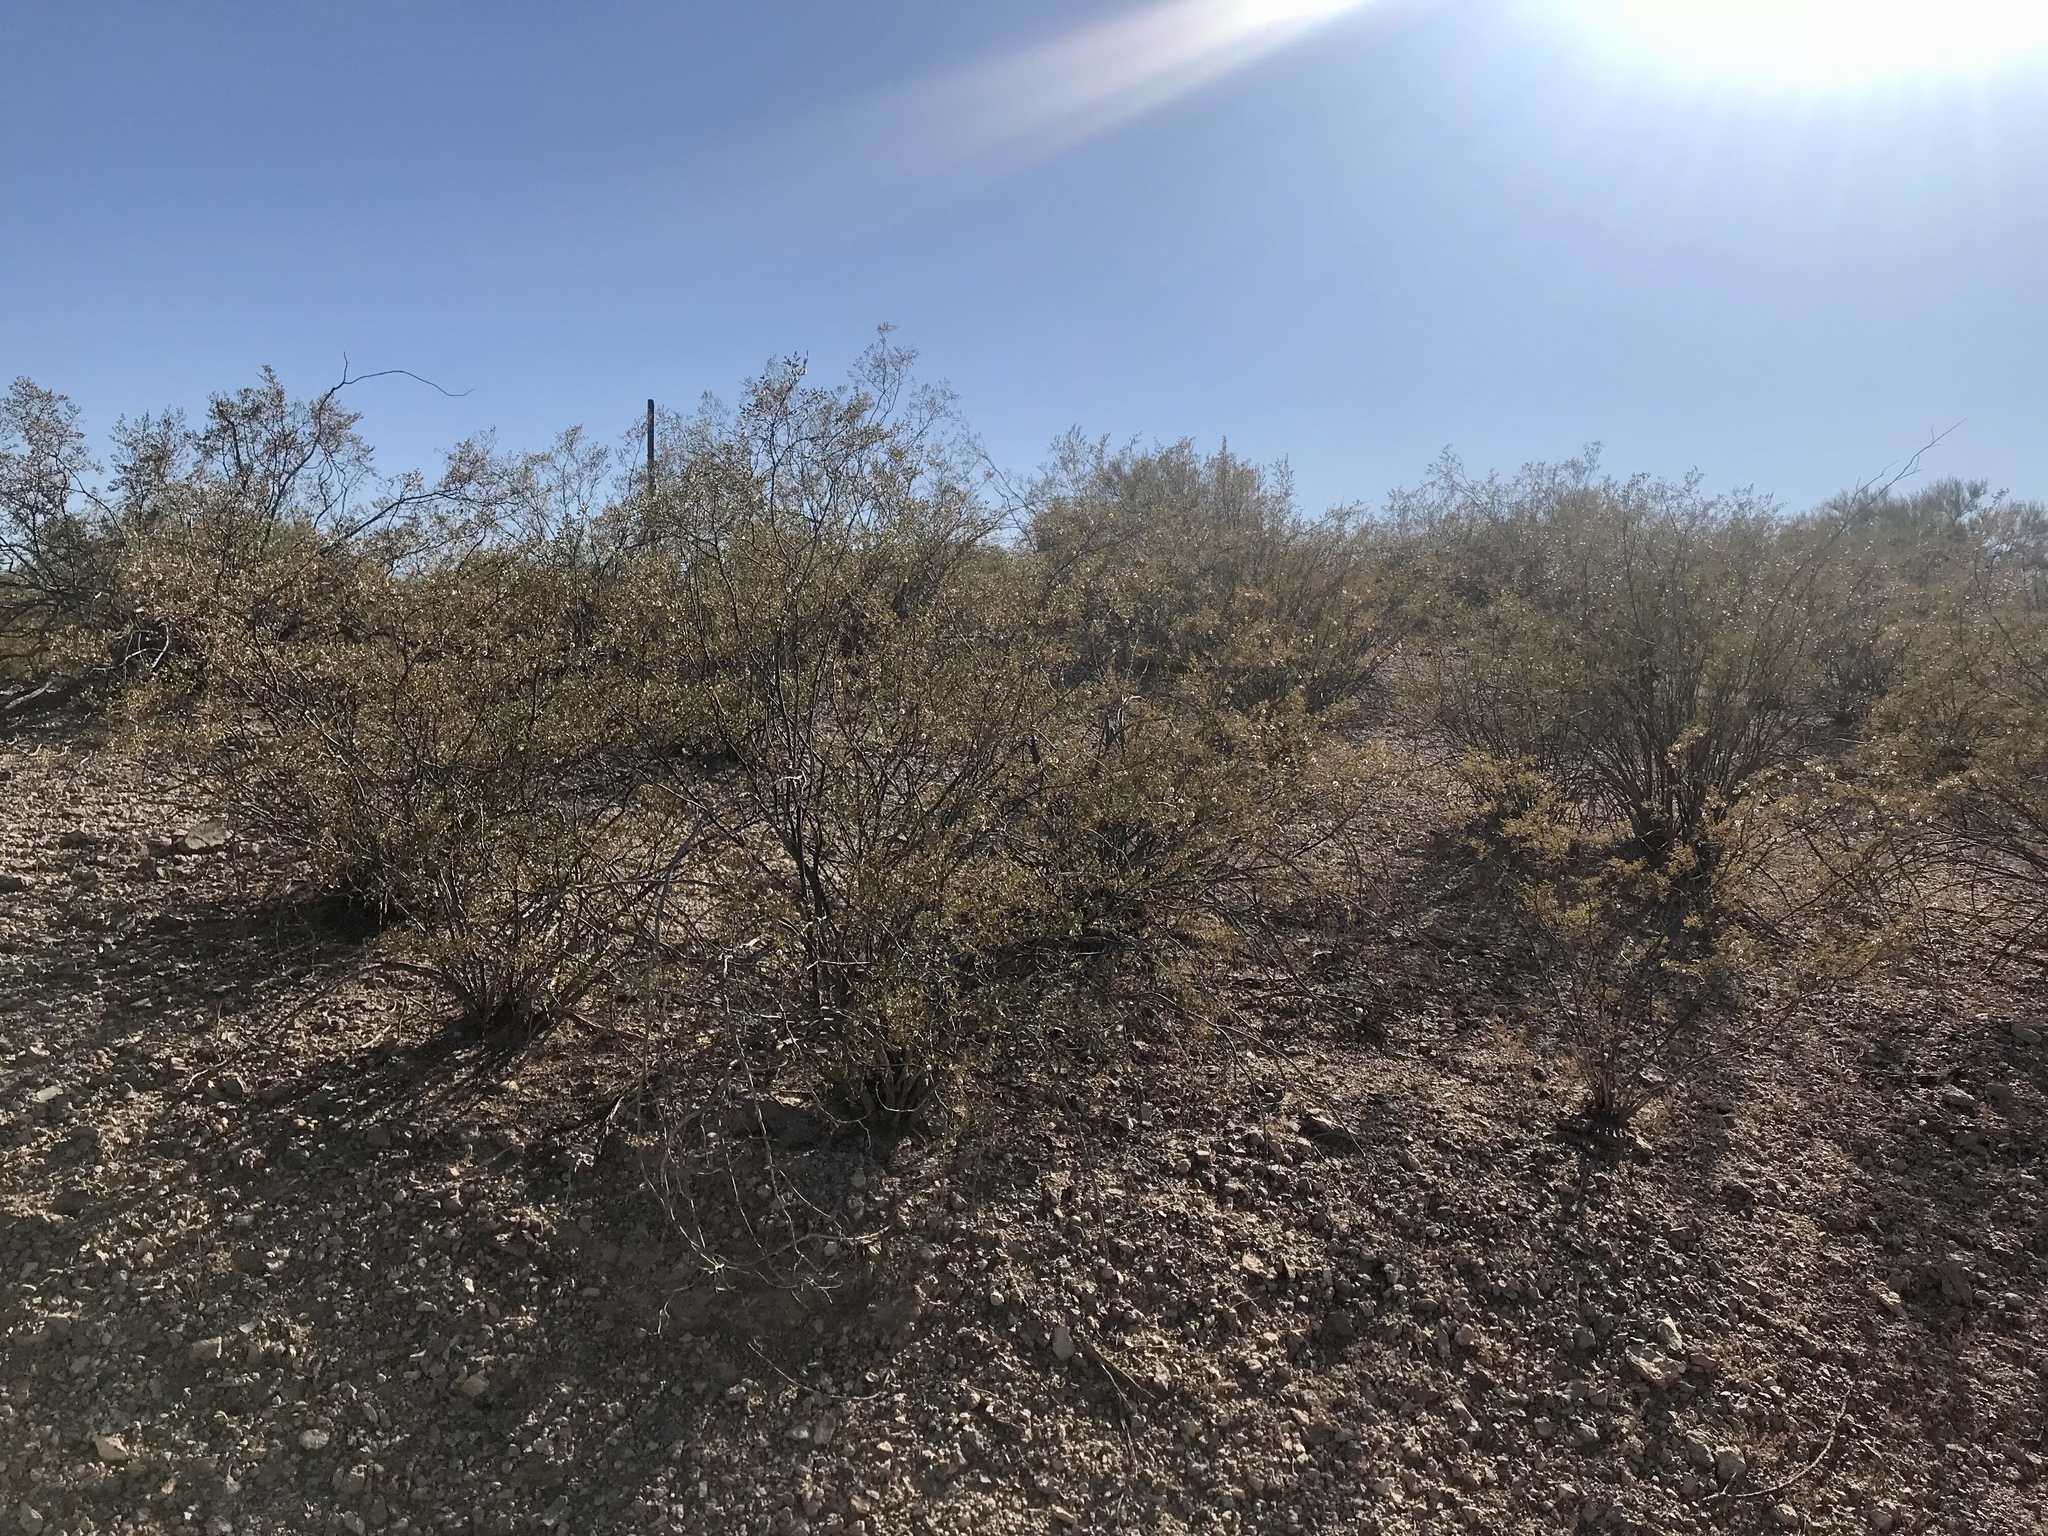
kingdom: Plantae
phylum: Tracheophyta
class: Magnoliopsida
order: Zygophyllales
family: Zygophyllaceae
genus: Larrea
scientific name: Larrea tridentata
